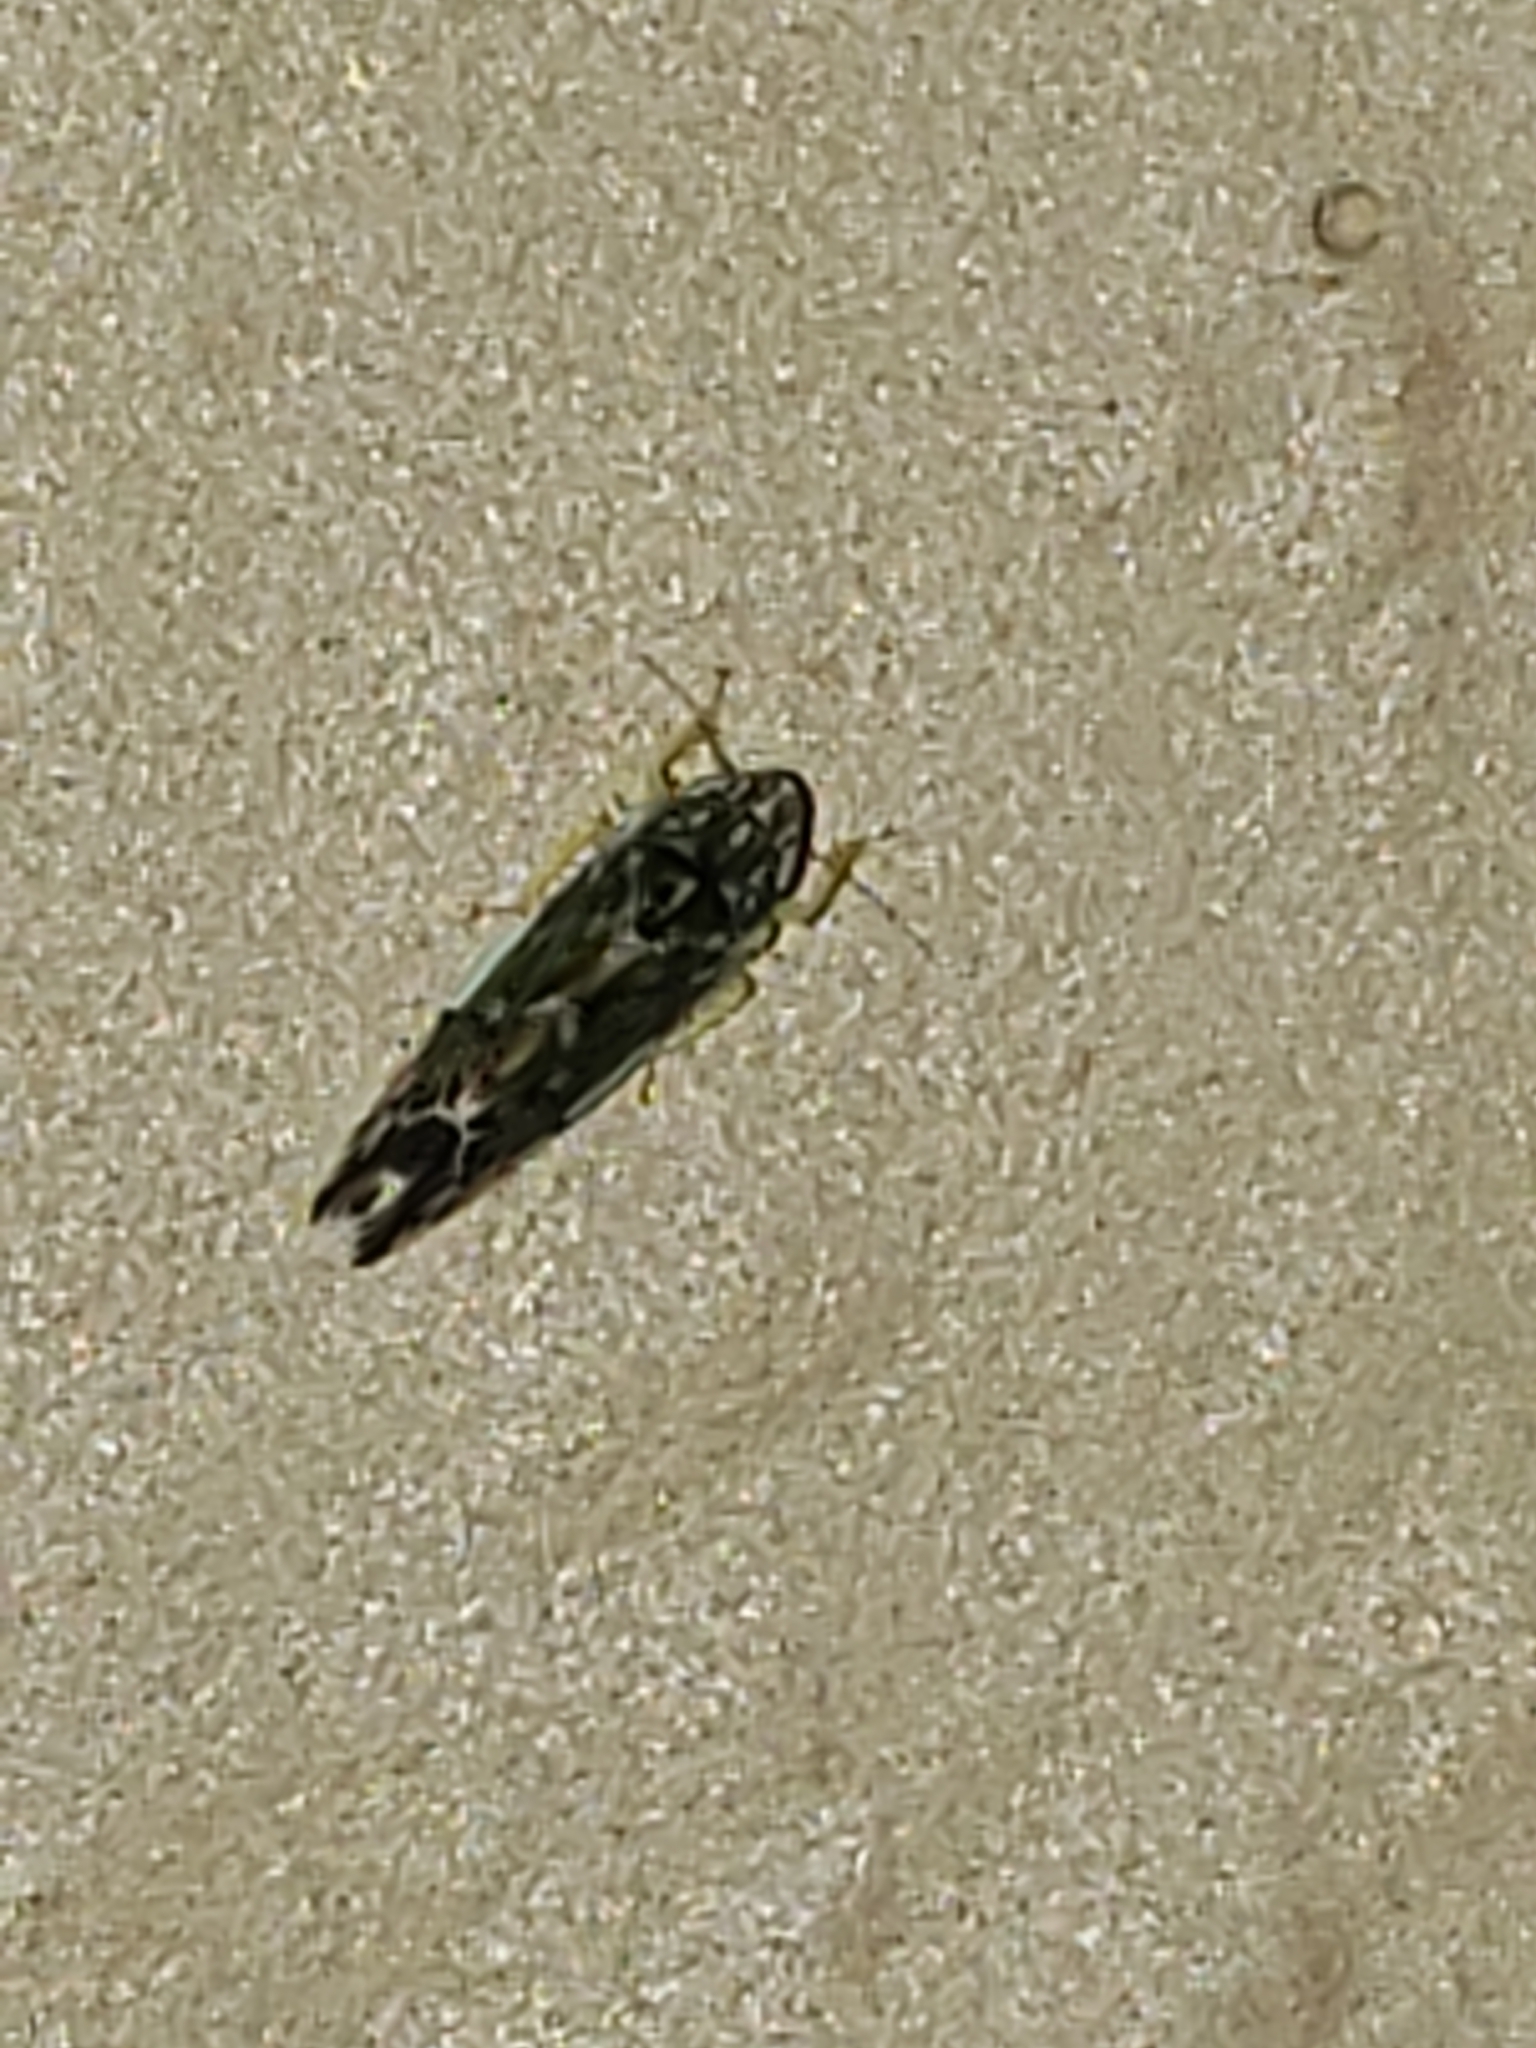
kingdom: Animalia
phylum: Arthropoda
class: Insecta
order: Hemiptera
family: Cicadellidae
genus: Erasmoneura
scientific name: Erasmoneura vulnerata
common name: The wounded leafhopper
